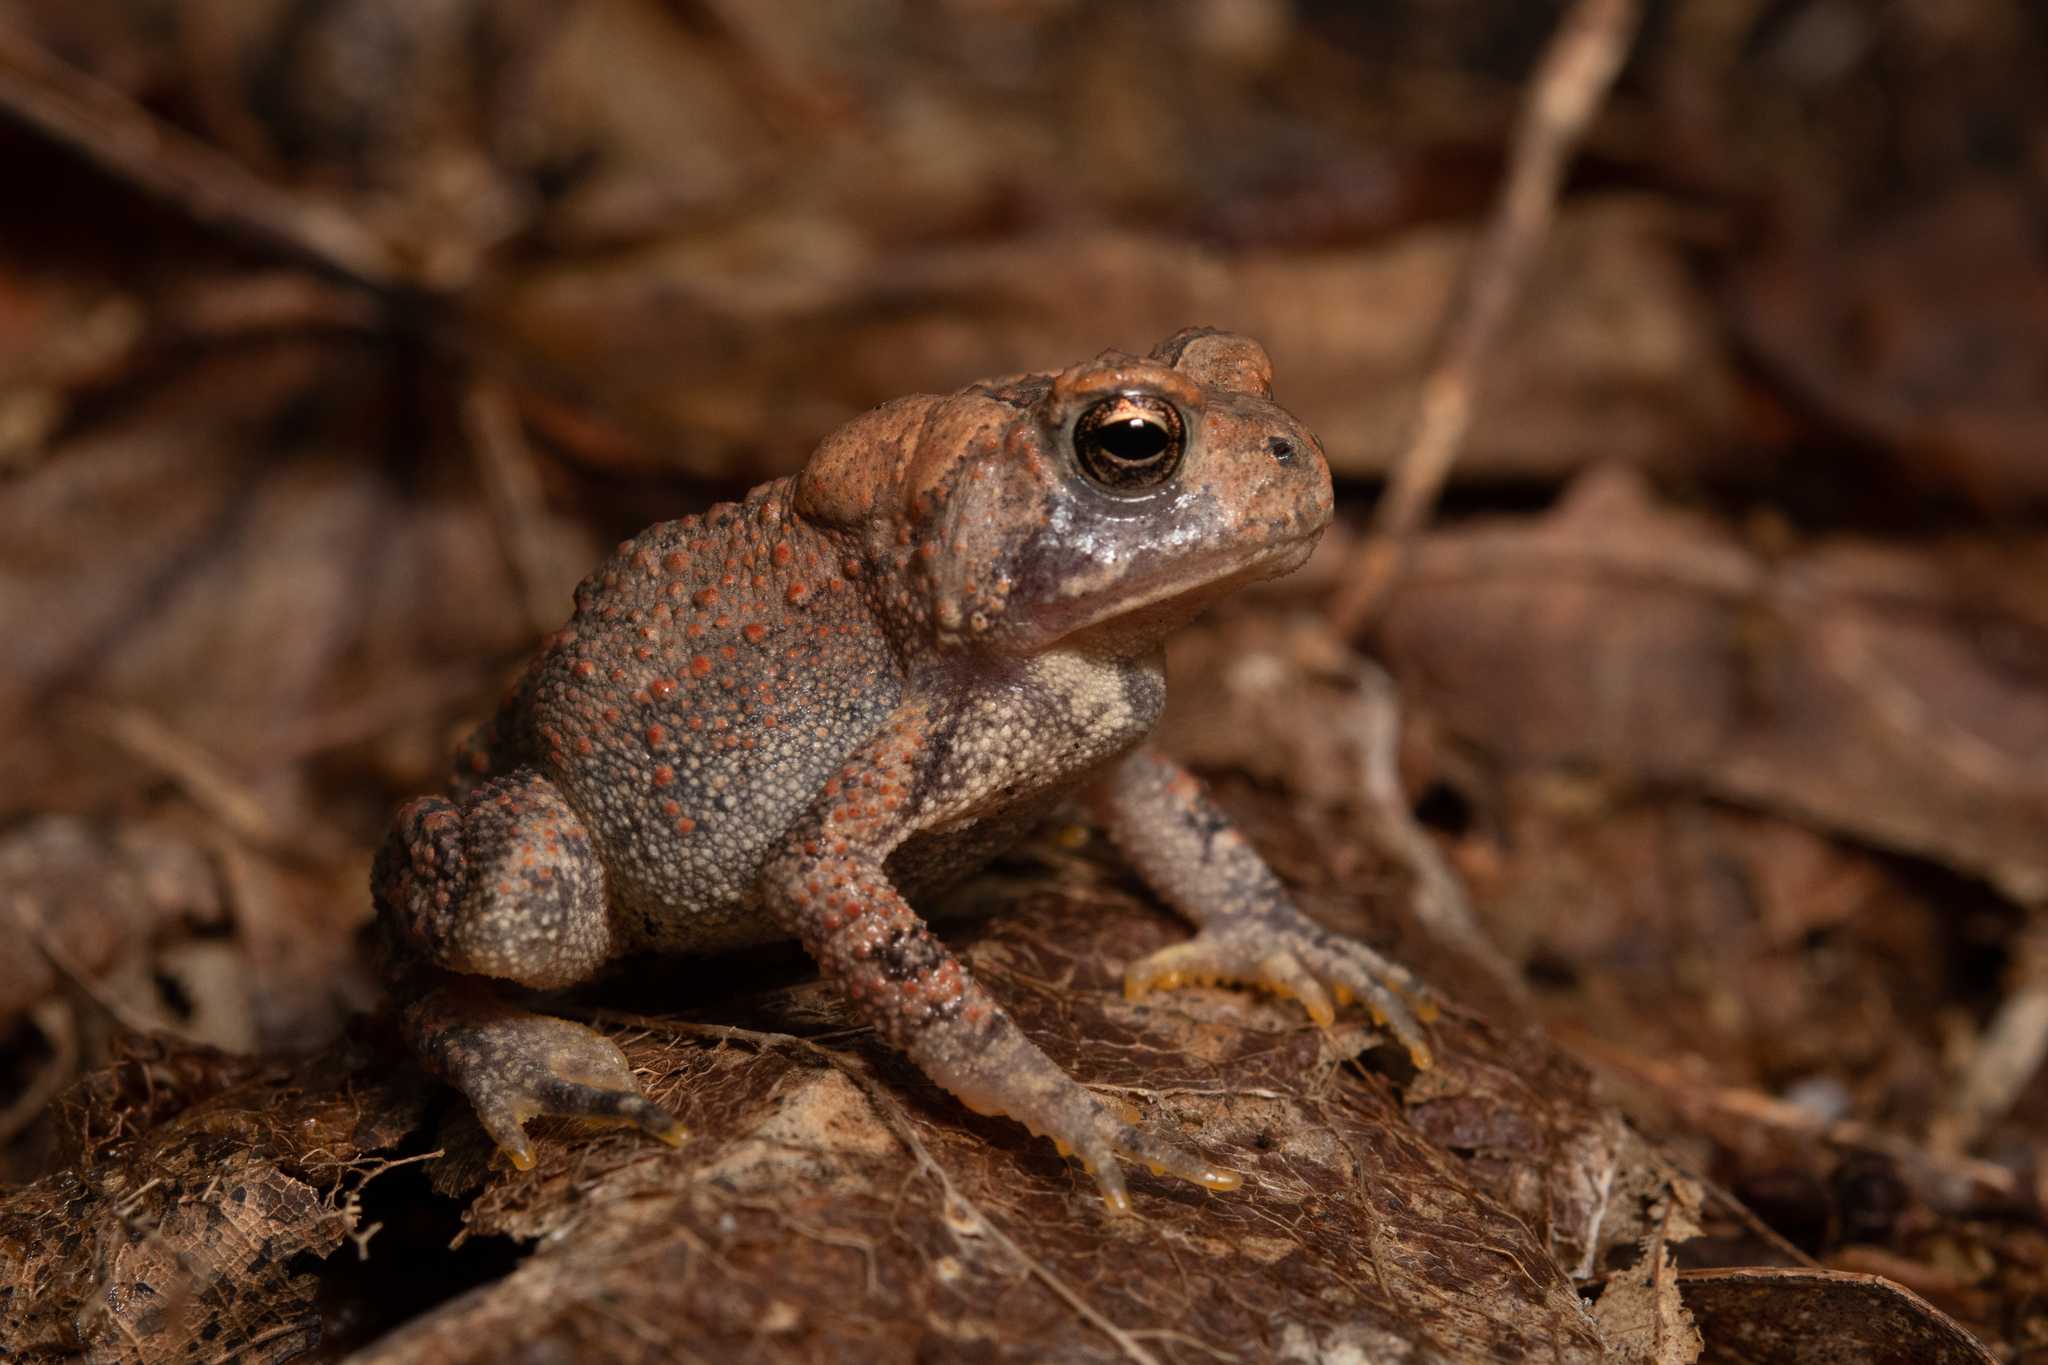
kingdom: Animalia
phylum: Chordata
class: Amphibia
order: Anura
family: Bufonidae
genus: Anaxyrus
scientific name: Anaxyrus americanus
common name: American toad
